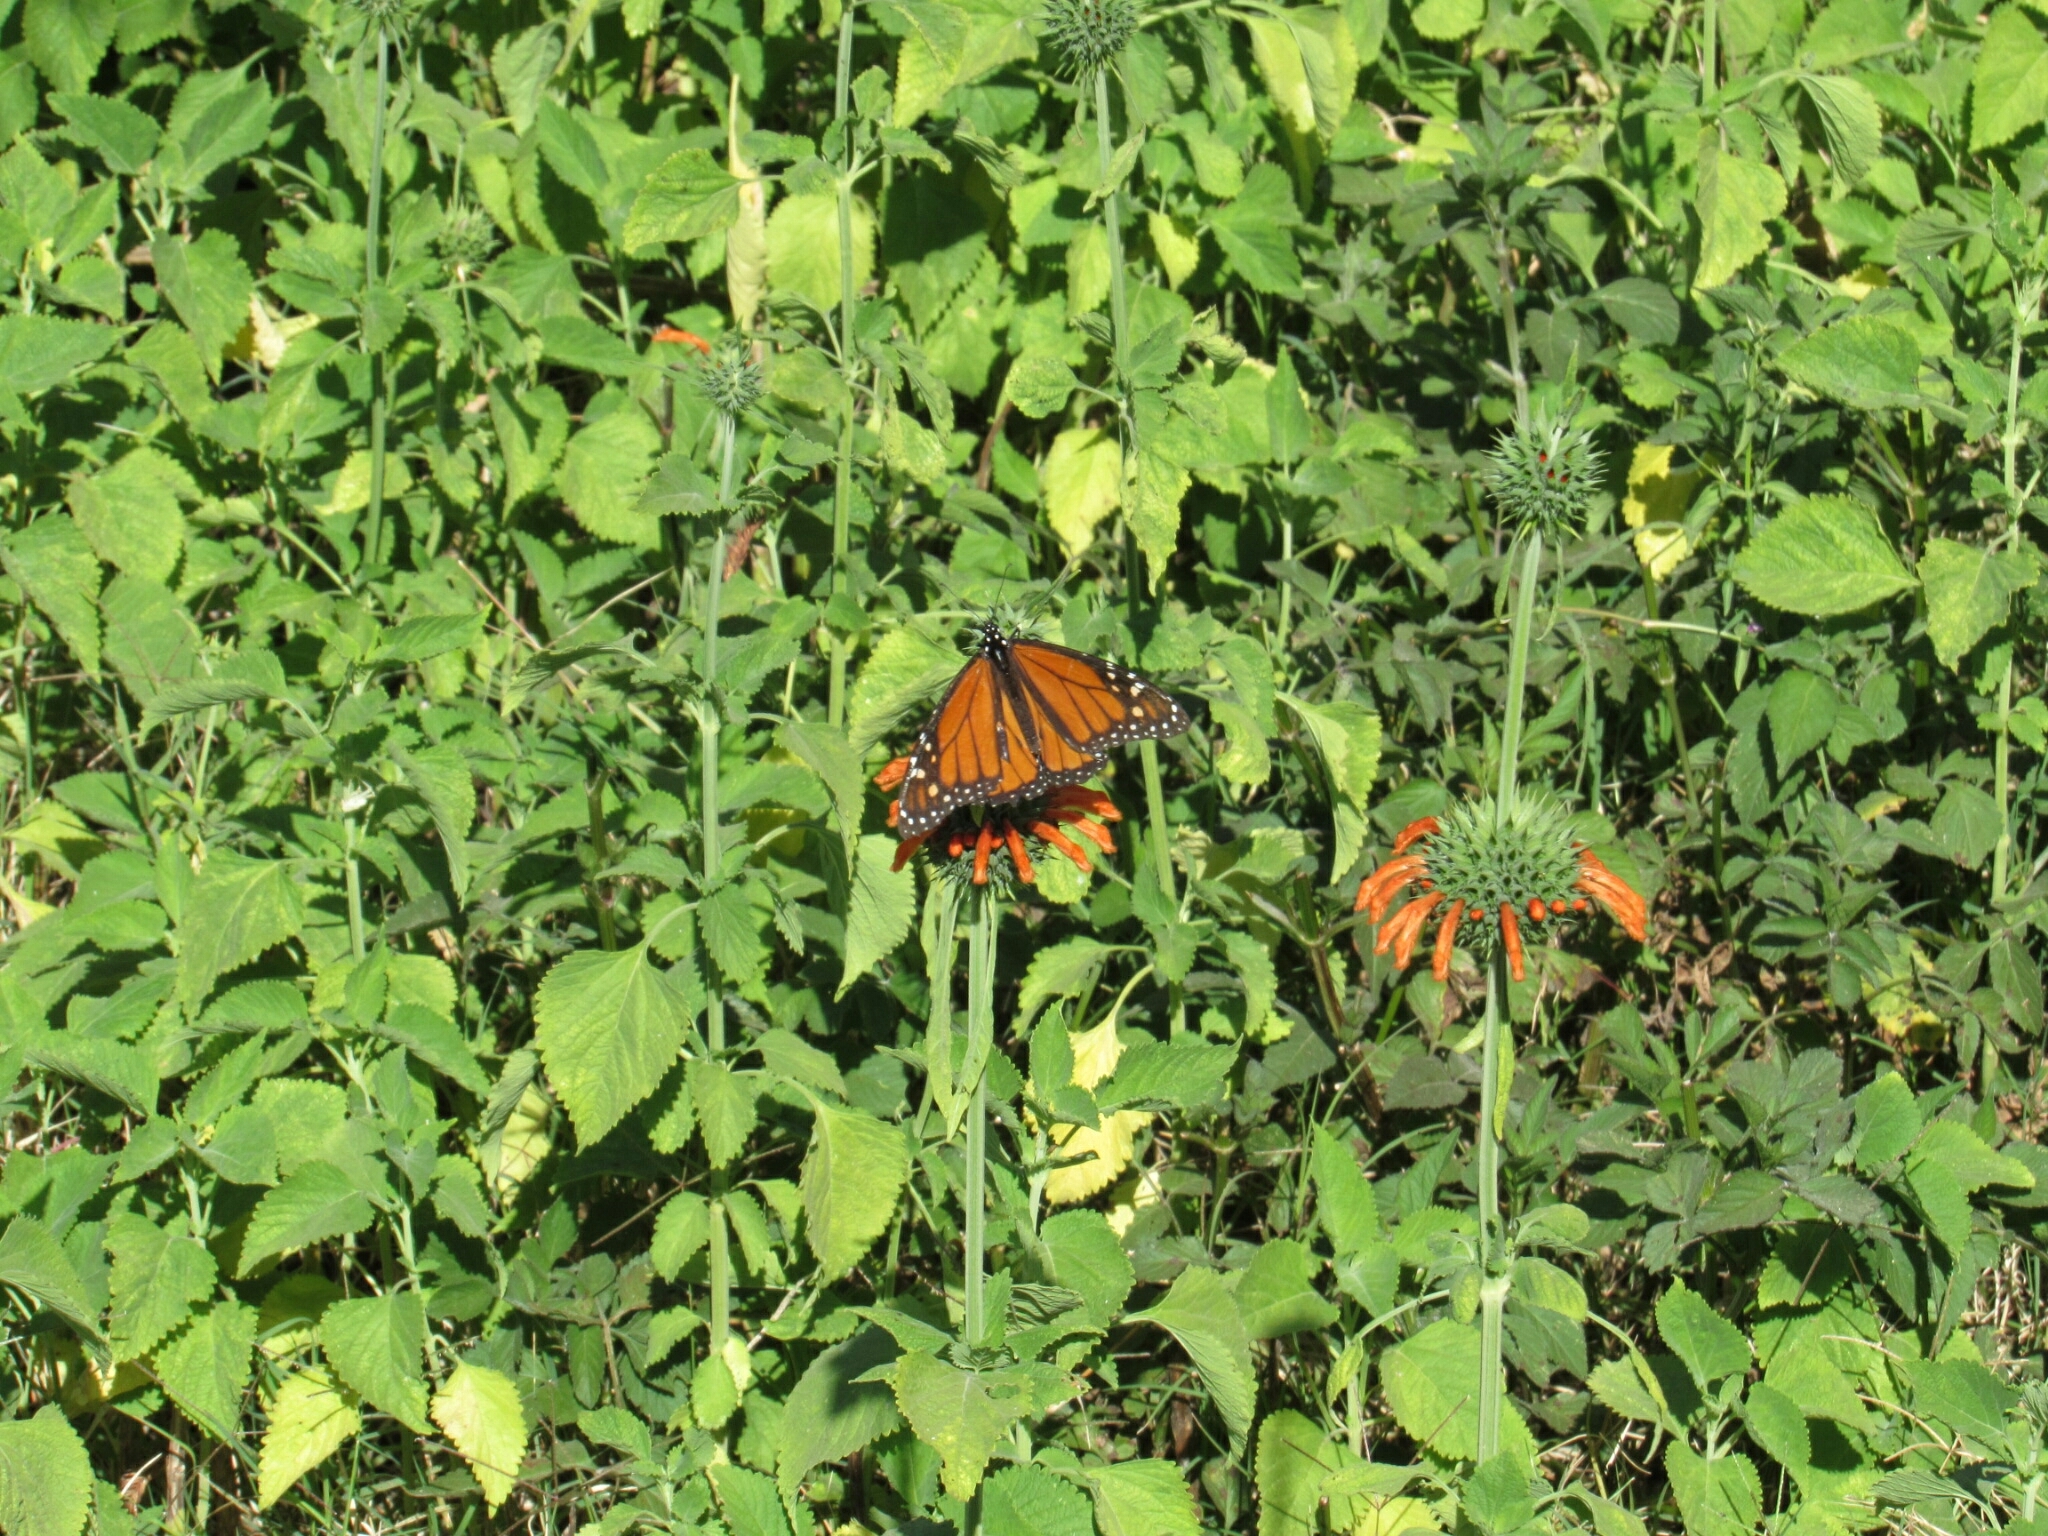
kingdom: Animalia
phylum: Arthropoda
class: Insecta
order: Lepidoptera
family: Nymphalidae
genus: Danaus
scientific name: Danaus plexippus
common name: Monarch
